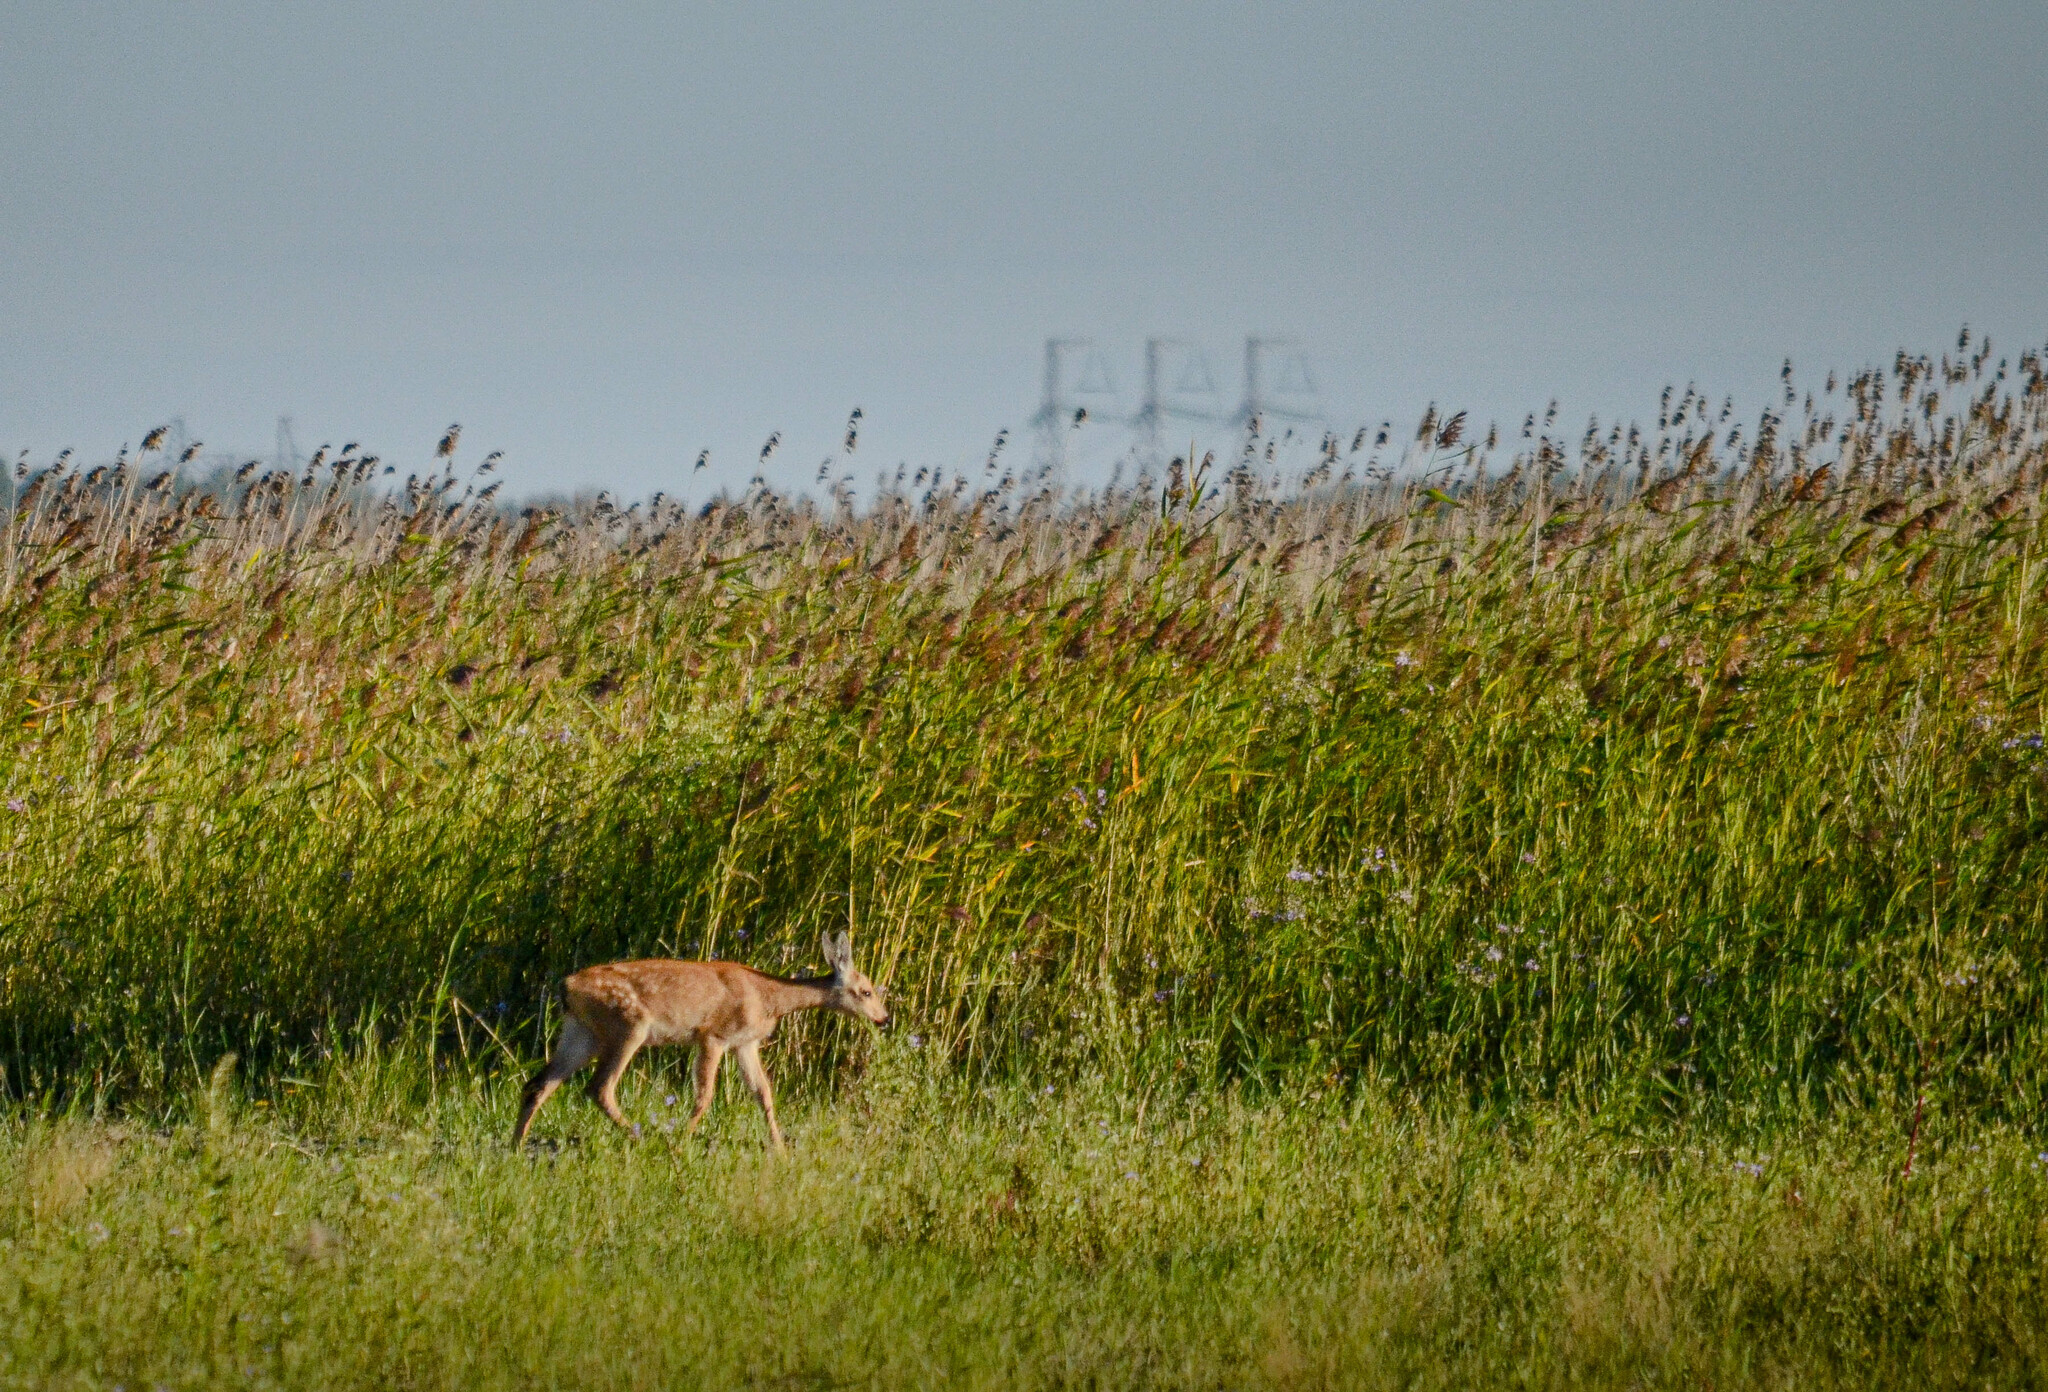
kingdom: Animalia
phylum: Chordata
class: Mammalia
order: Artiodactyla
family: Cervidae
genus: Capreolus
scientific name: Capreolus pygargus
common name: Siberian roe
